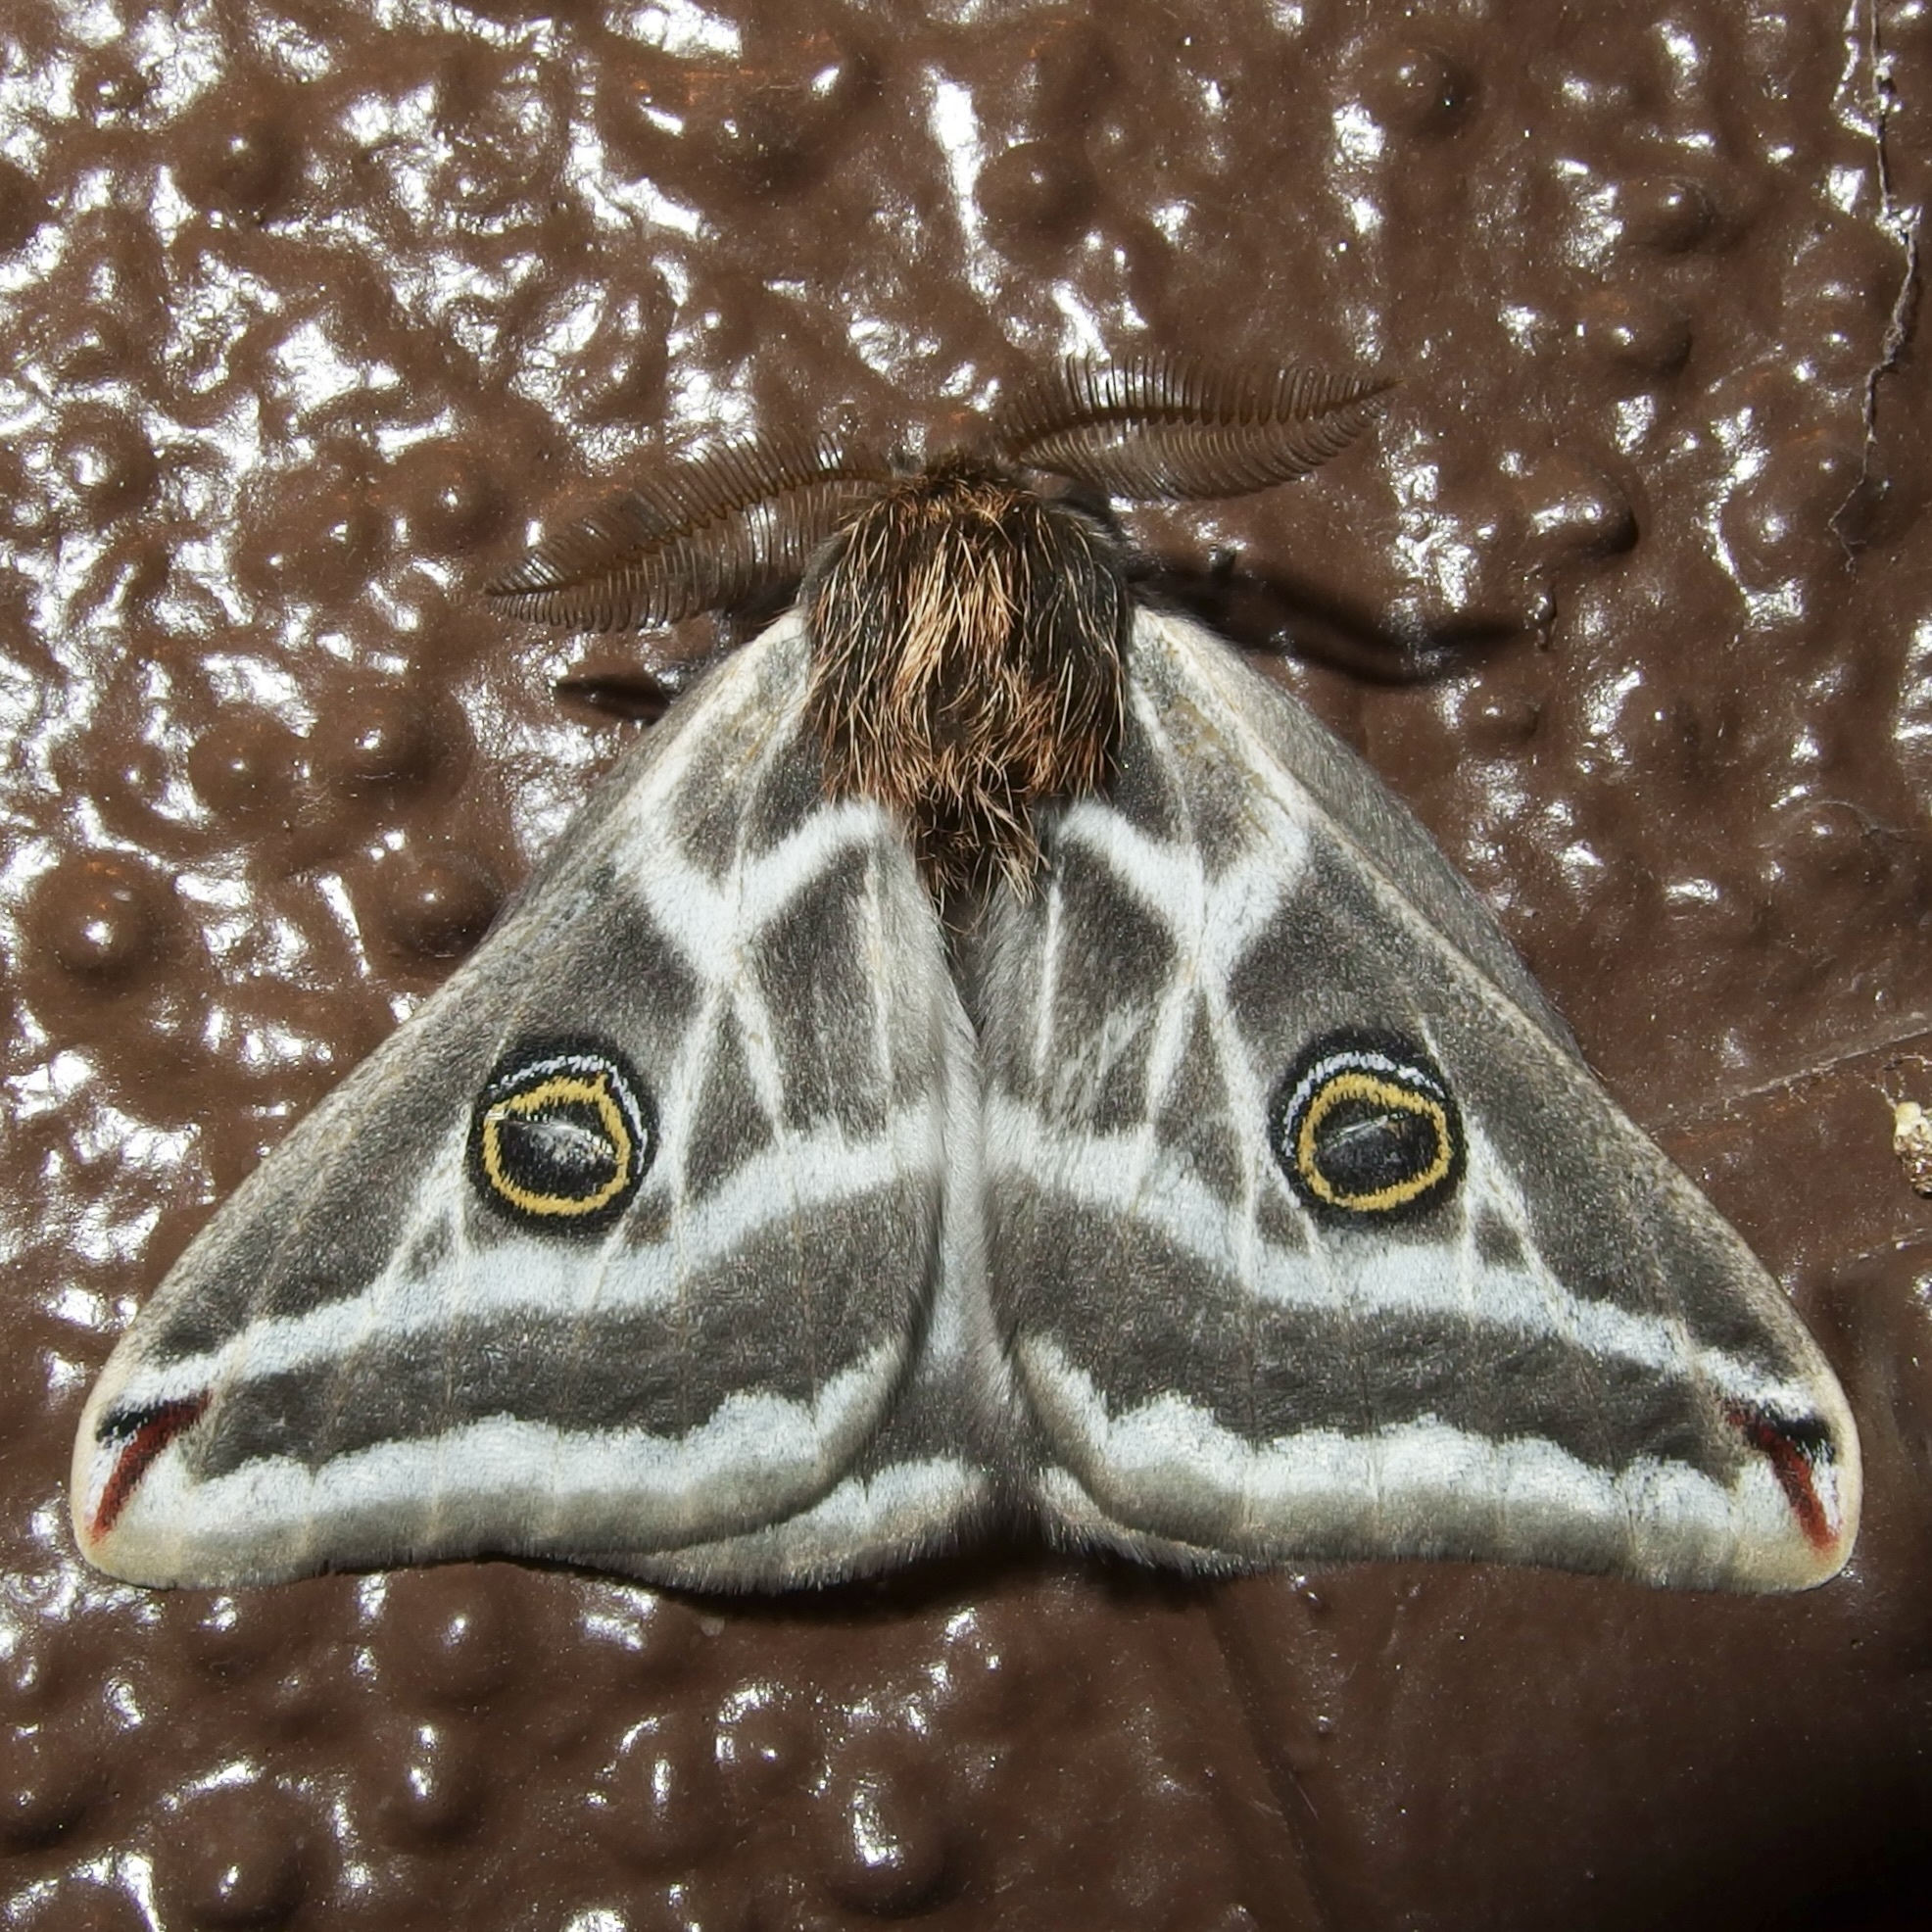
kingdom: Animalia
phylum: Arthropoda
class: Insecta
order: Lepidoptera
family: Saturniidae
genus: Saturnia
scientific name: Saturnia anona
